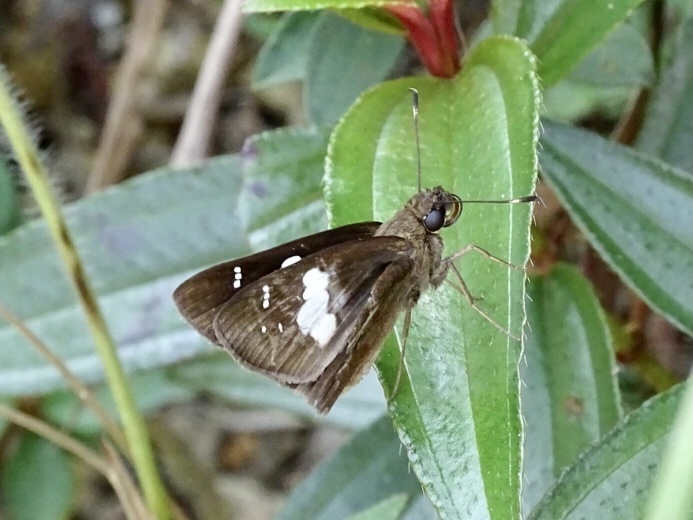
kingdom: Animalia
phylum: Arthropoda
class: Insecta
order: Lepidoptera
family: Hesperiidae
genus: Notocrypta
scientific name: Notocrypta curvifascia
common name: Restricted demon
